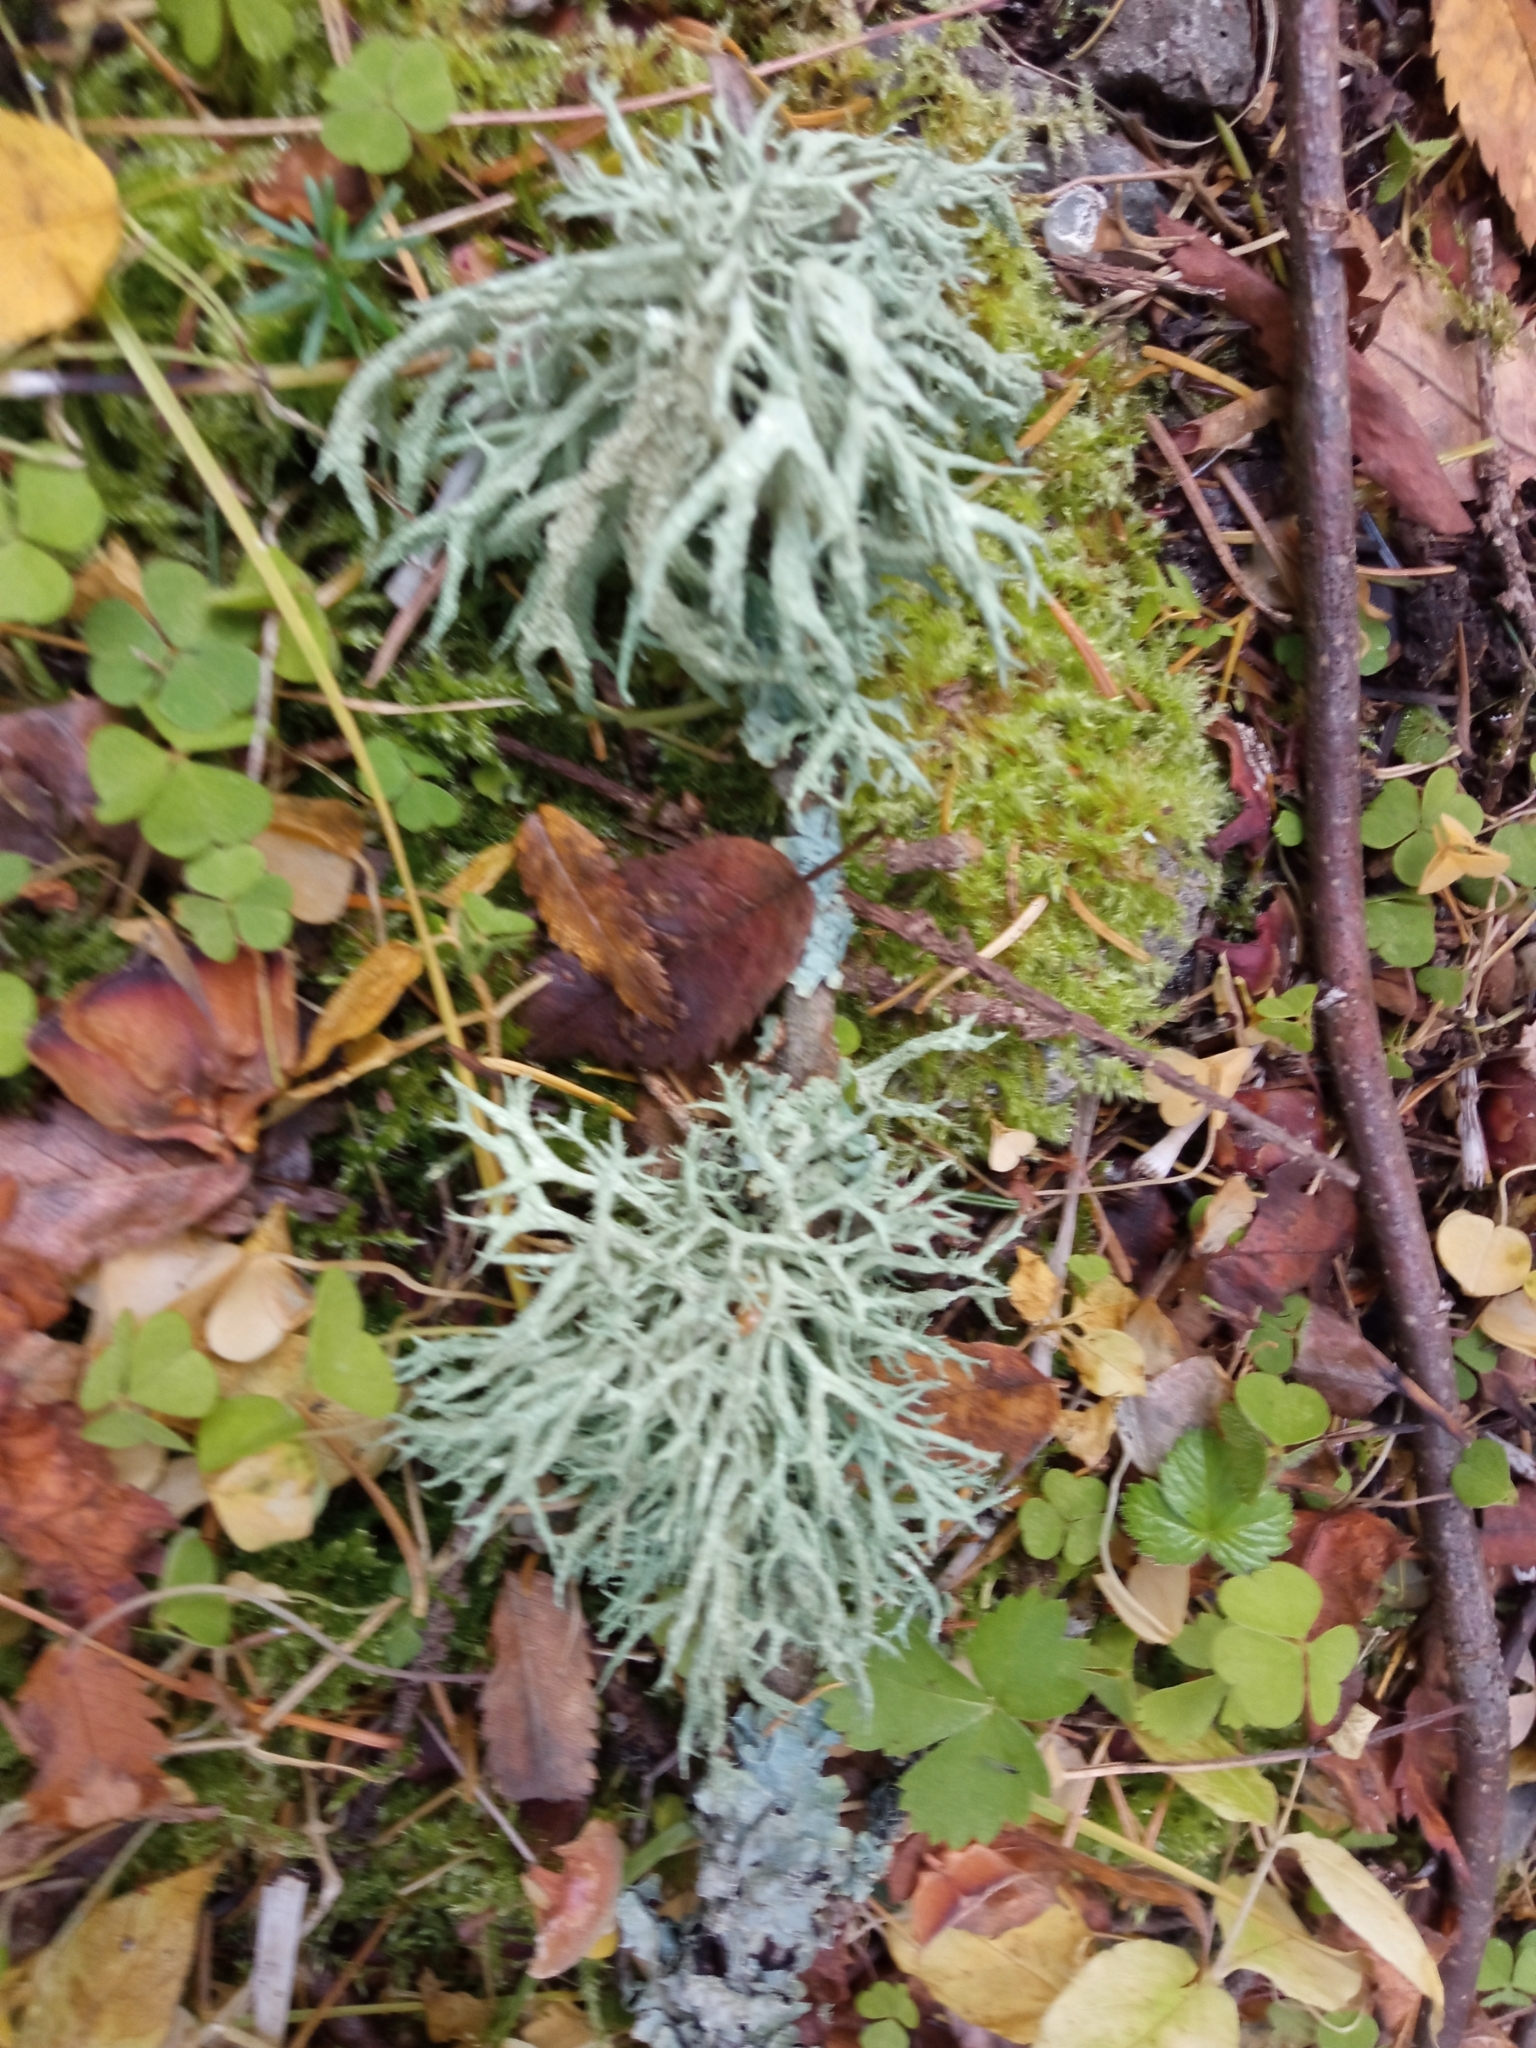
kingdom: Fungi
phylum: Ascomycota
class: Lecanoromycetes
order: Lecanorales
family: Parmeliaceae
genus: Evernia
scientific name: Evernia mesomorpha
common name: Boreal oak moss lichen
